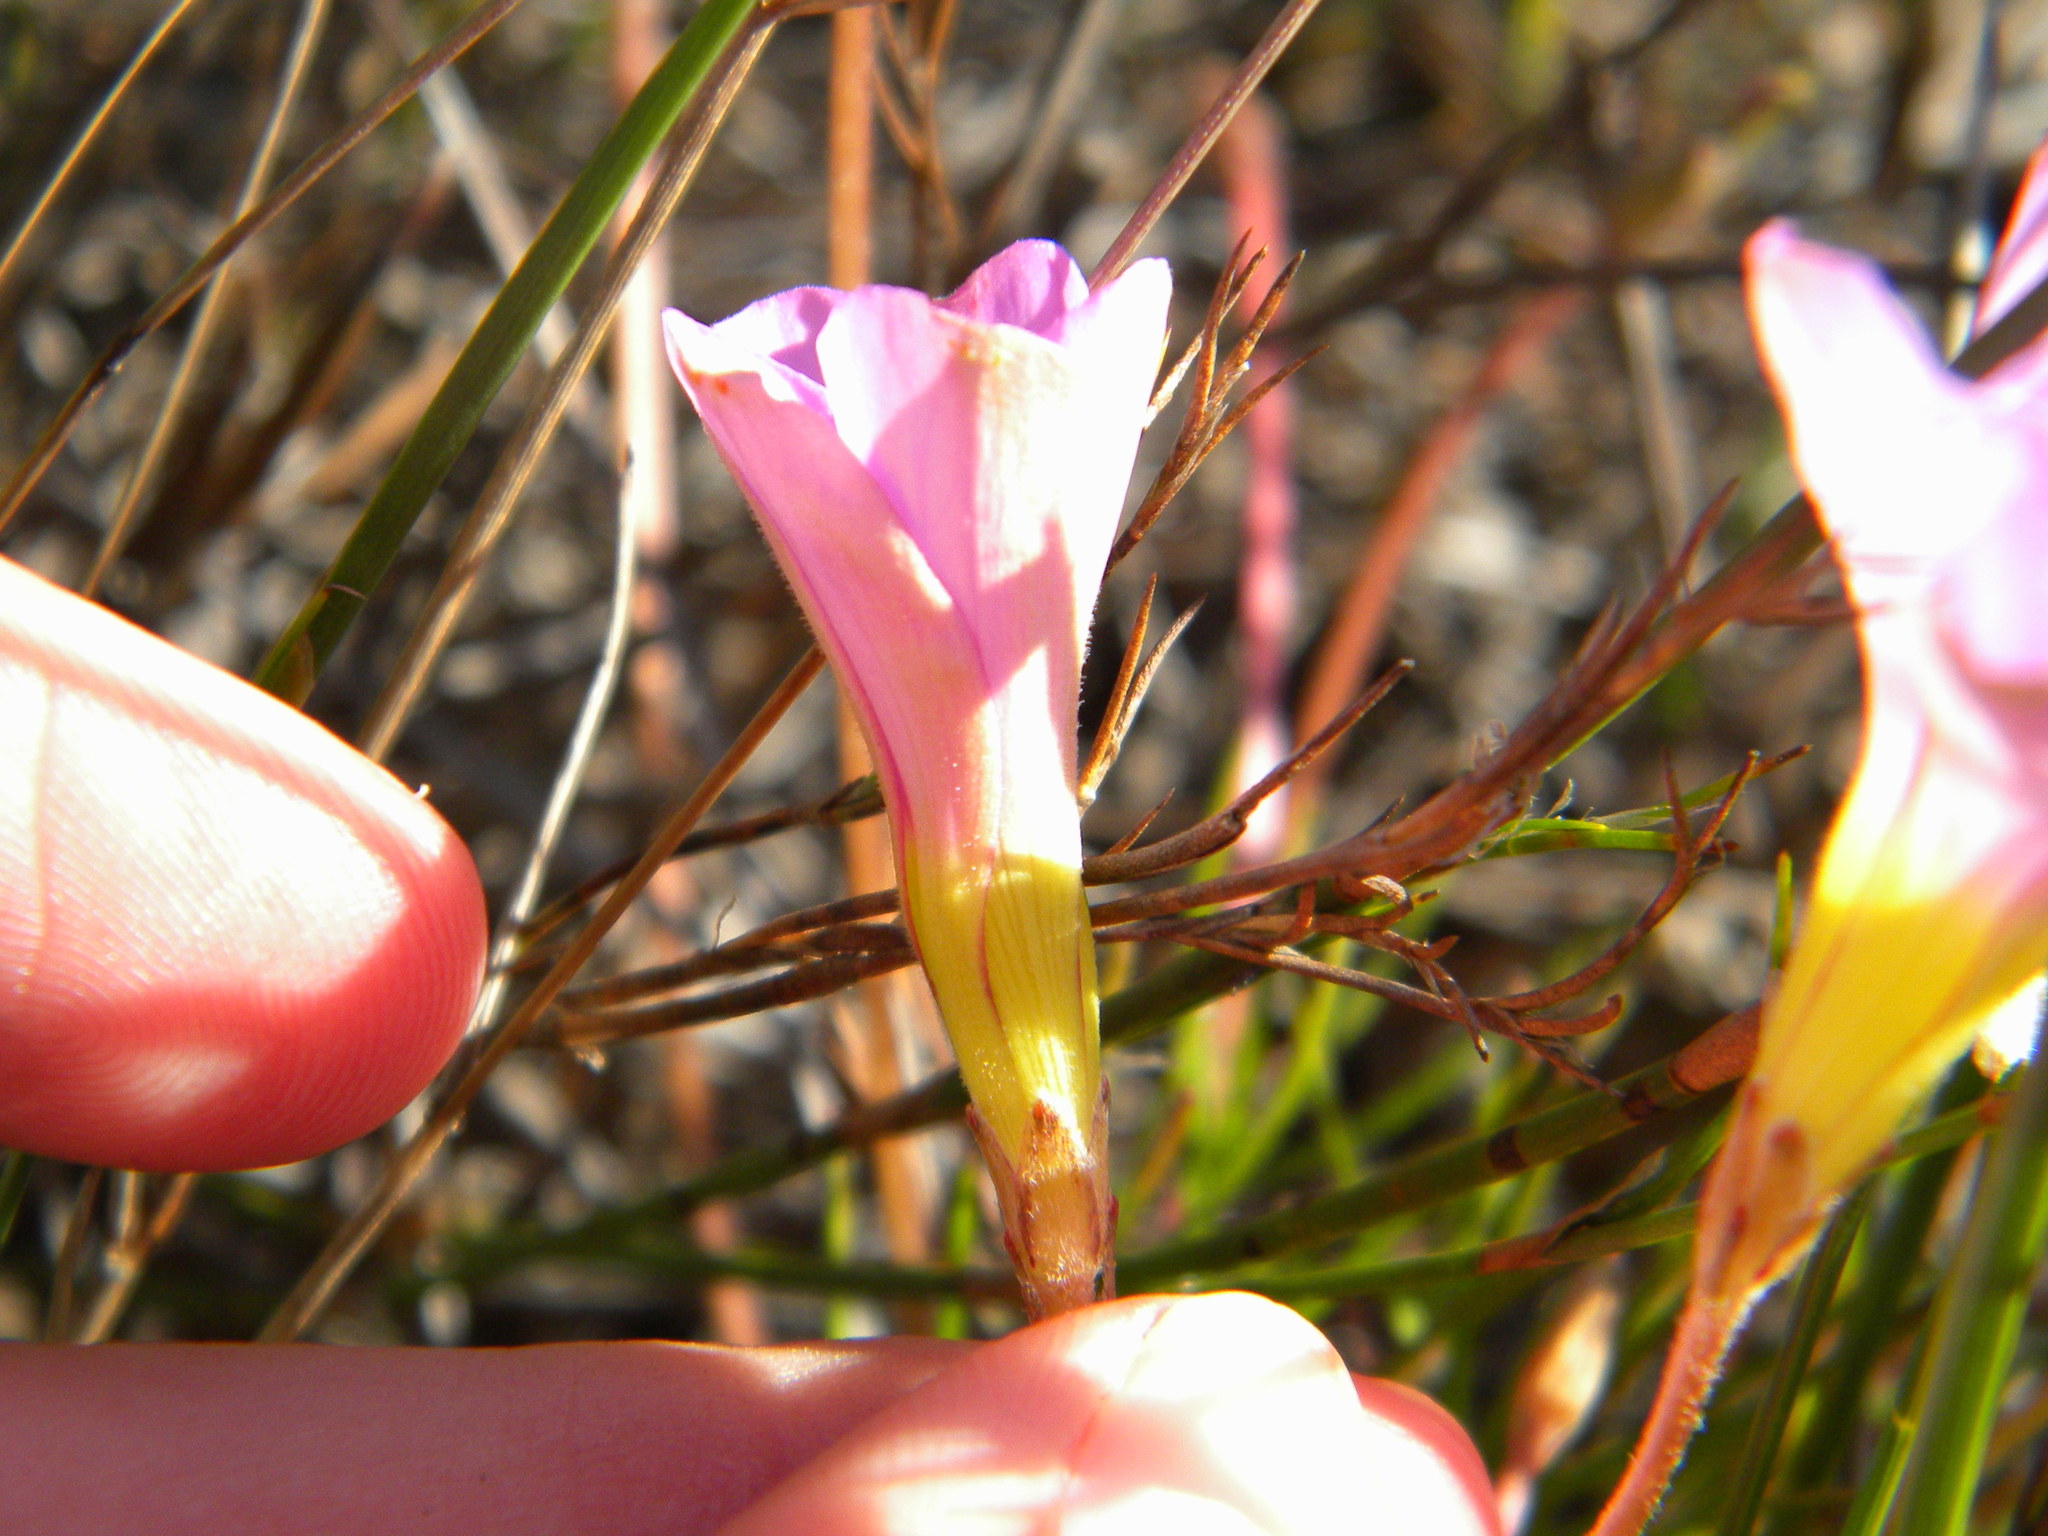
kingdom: Plantae
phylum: Tracheophyta
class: Magnoliopsida
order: Oxalidales
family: Oxalidaceae
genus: Oxalis
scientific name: Oxalis polyphylla
